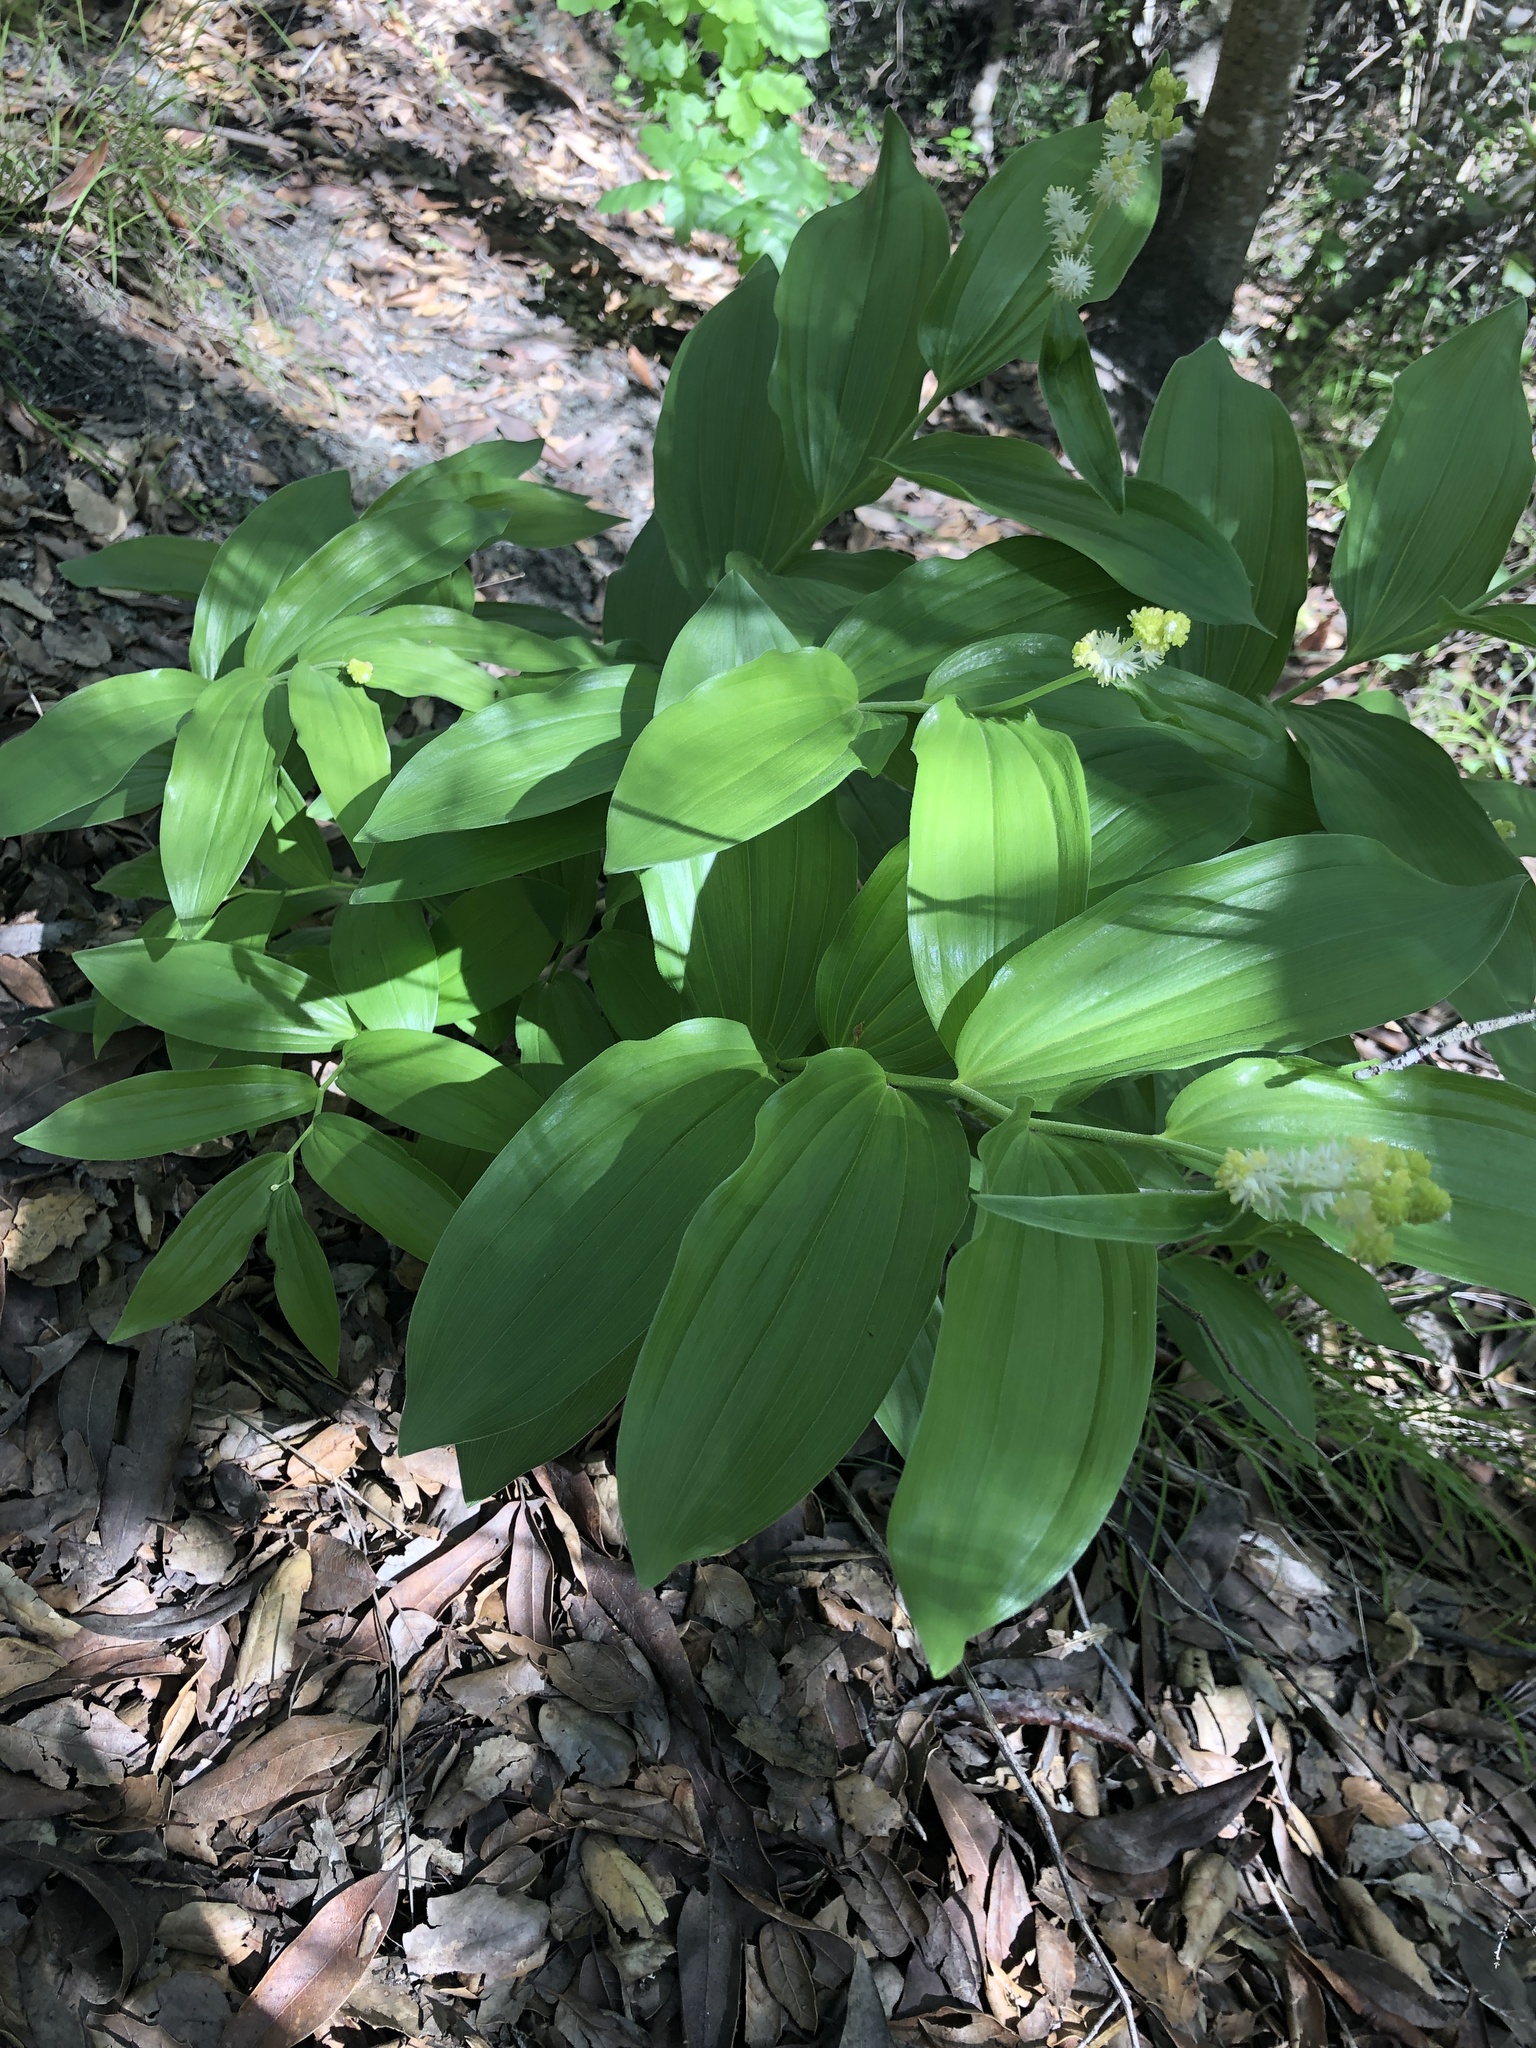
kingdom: Plantae
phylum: Tracheophyta
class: Liliopsida
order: Asparagales
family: Asparagaceae
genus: Maianthemum
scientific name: Maianthemum racemosum
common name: False spikenard
